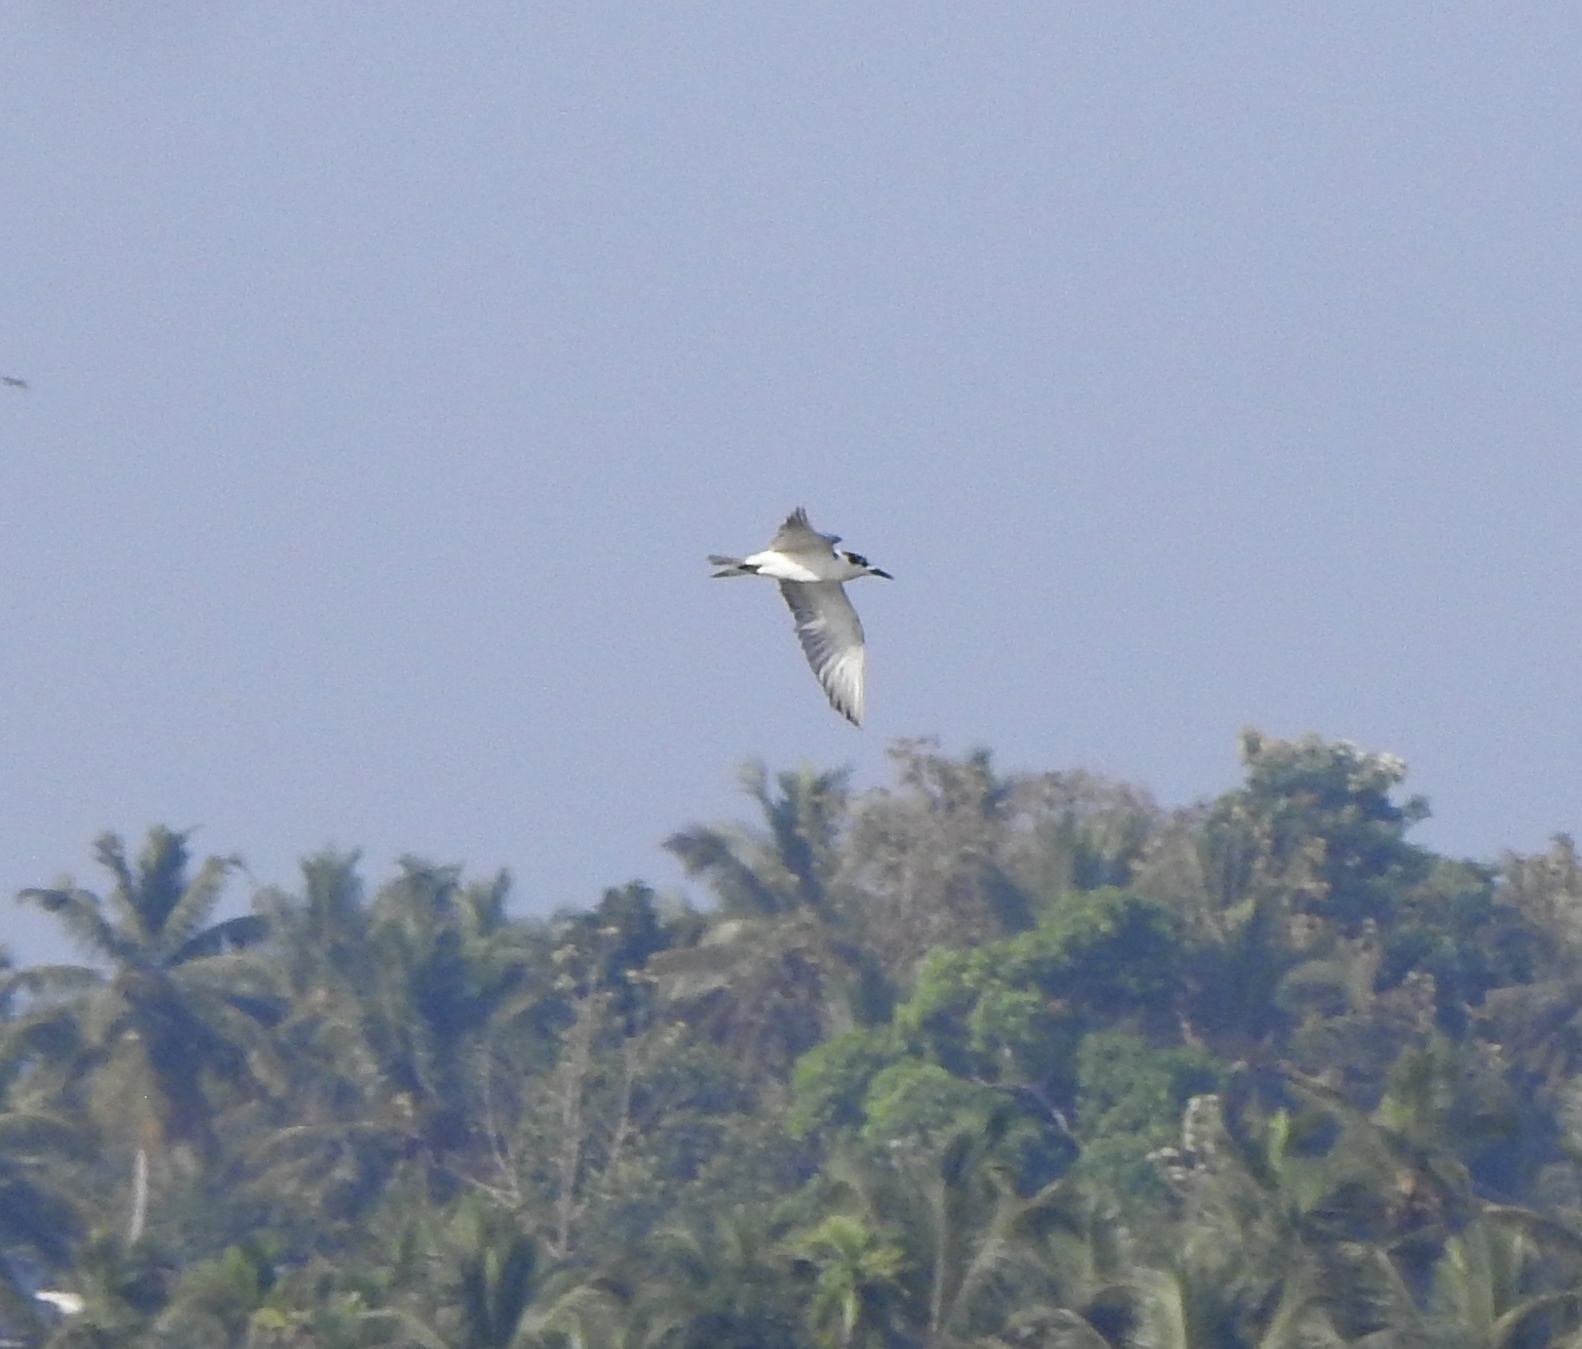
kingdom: Animalia
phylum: Chordata
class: Aves
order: Charadriiformes
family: Laridae
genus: Chlidonias
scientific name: Chlidonias hybrida
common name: Whiskered tern
